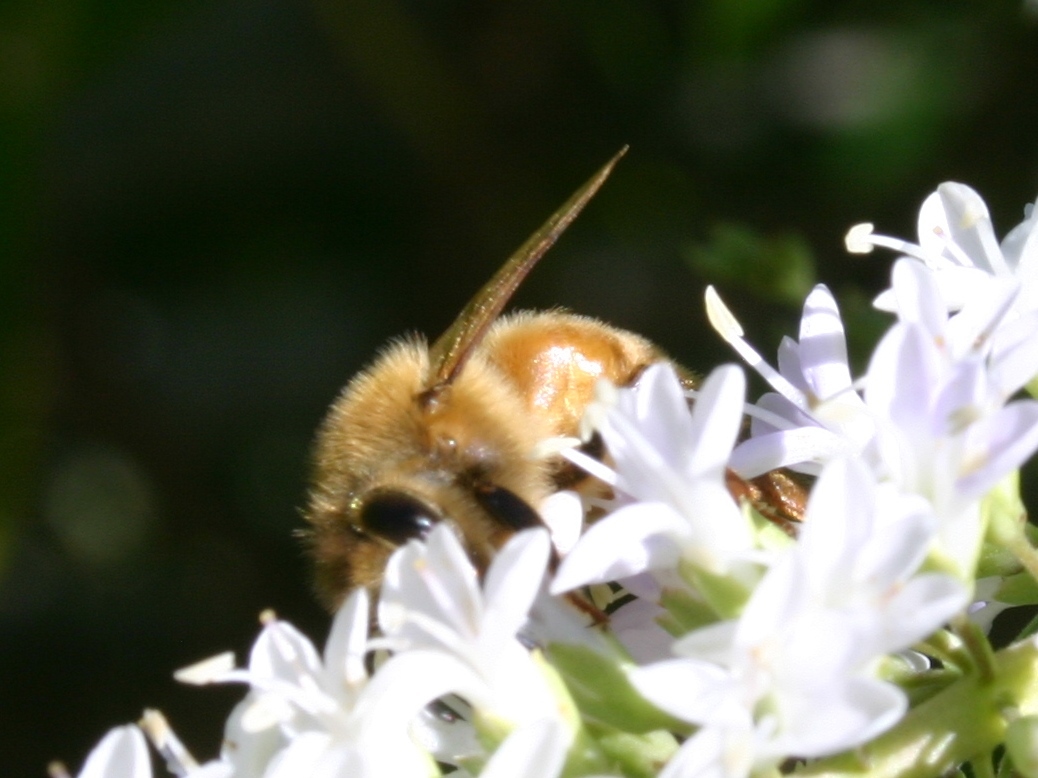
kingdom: Animalia
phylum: Arthropoda
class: Insecta
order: Hymenoptera
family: Apidae
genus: Apis
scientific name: Apis mellifera
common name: Honey bee
